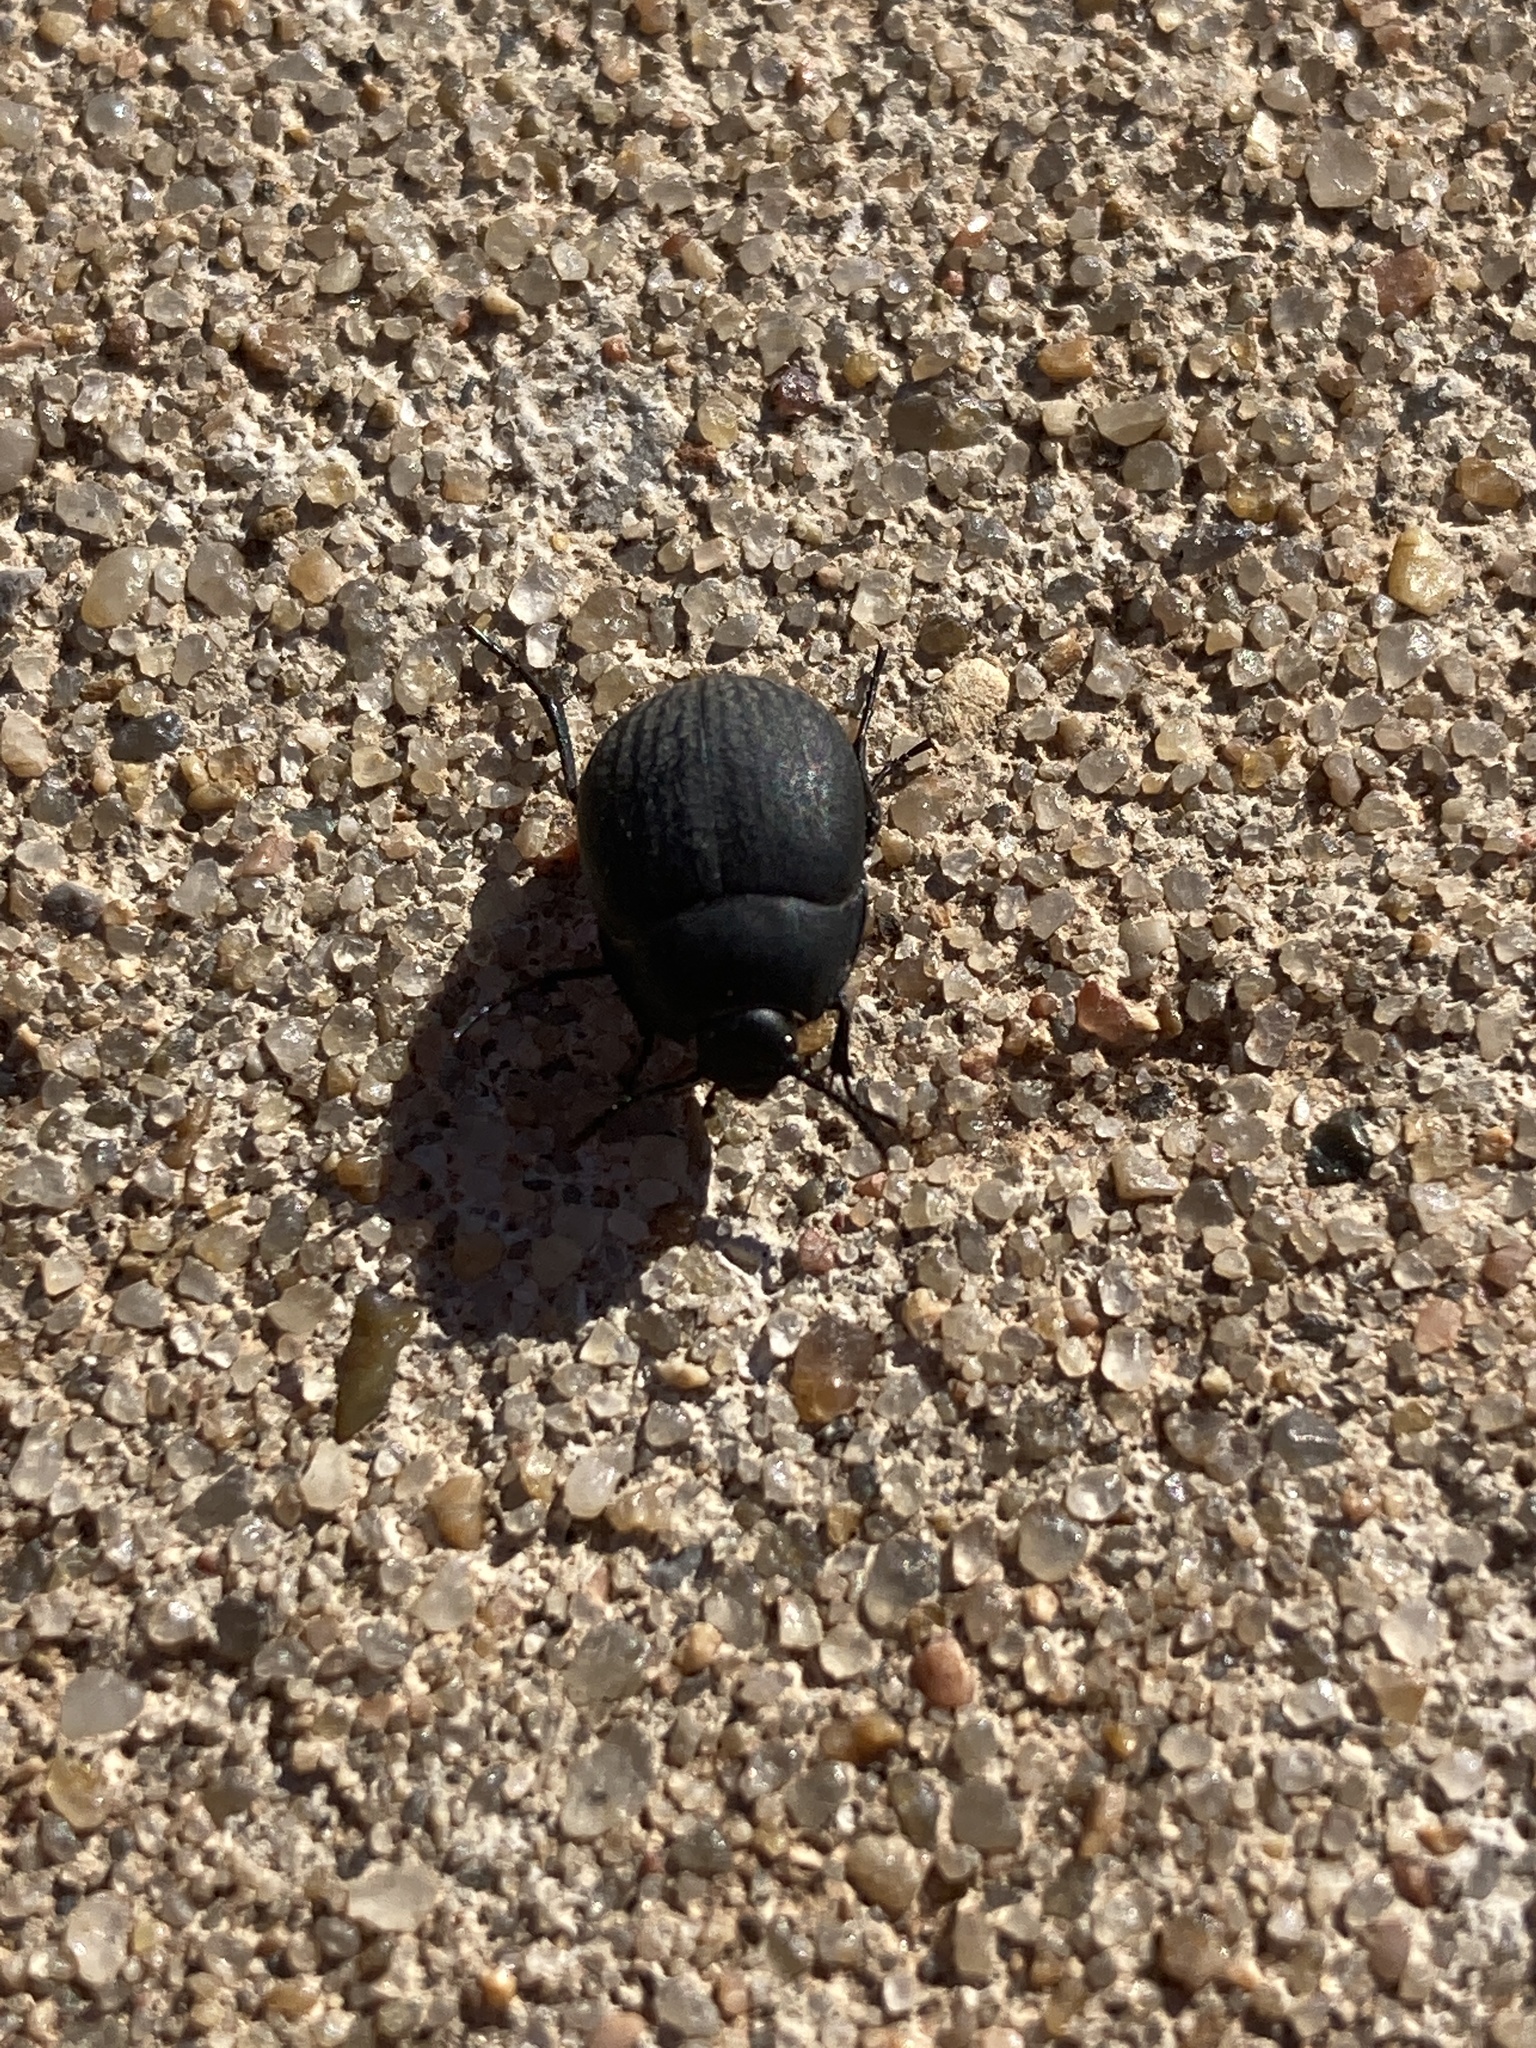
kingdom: Animalia
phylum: Arthropoda
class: Insecta
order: Coleoptera
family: Tenebrionidae
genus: Eusattus
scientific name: Eusattus reticulatus
